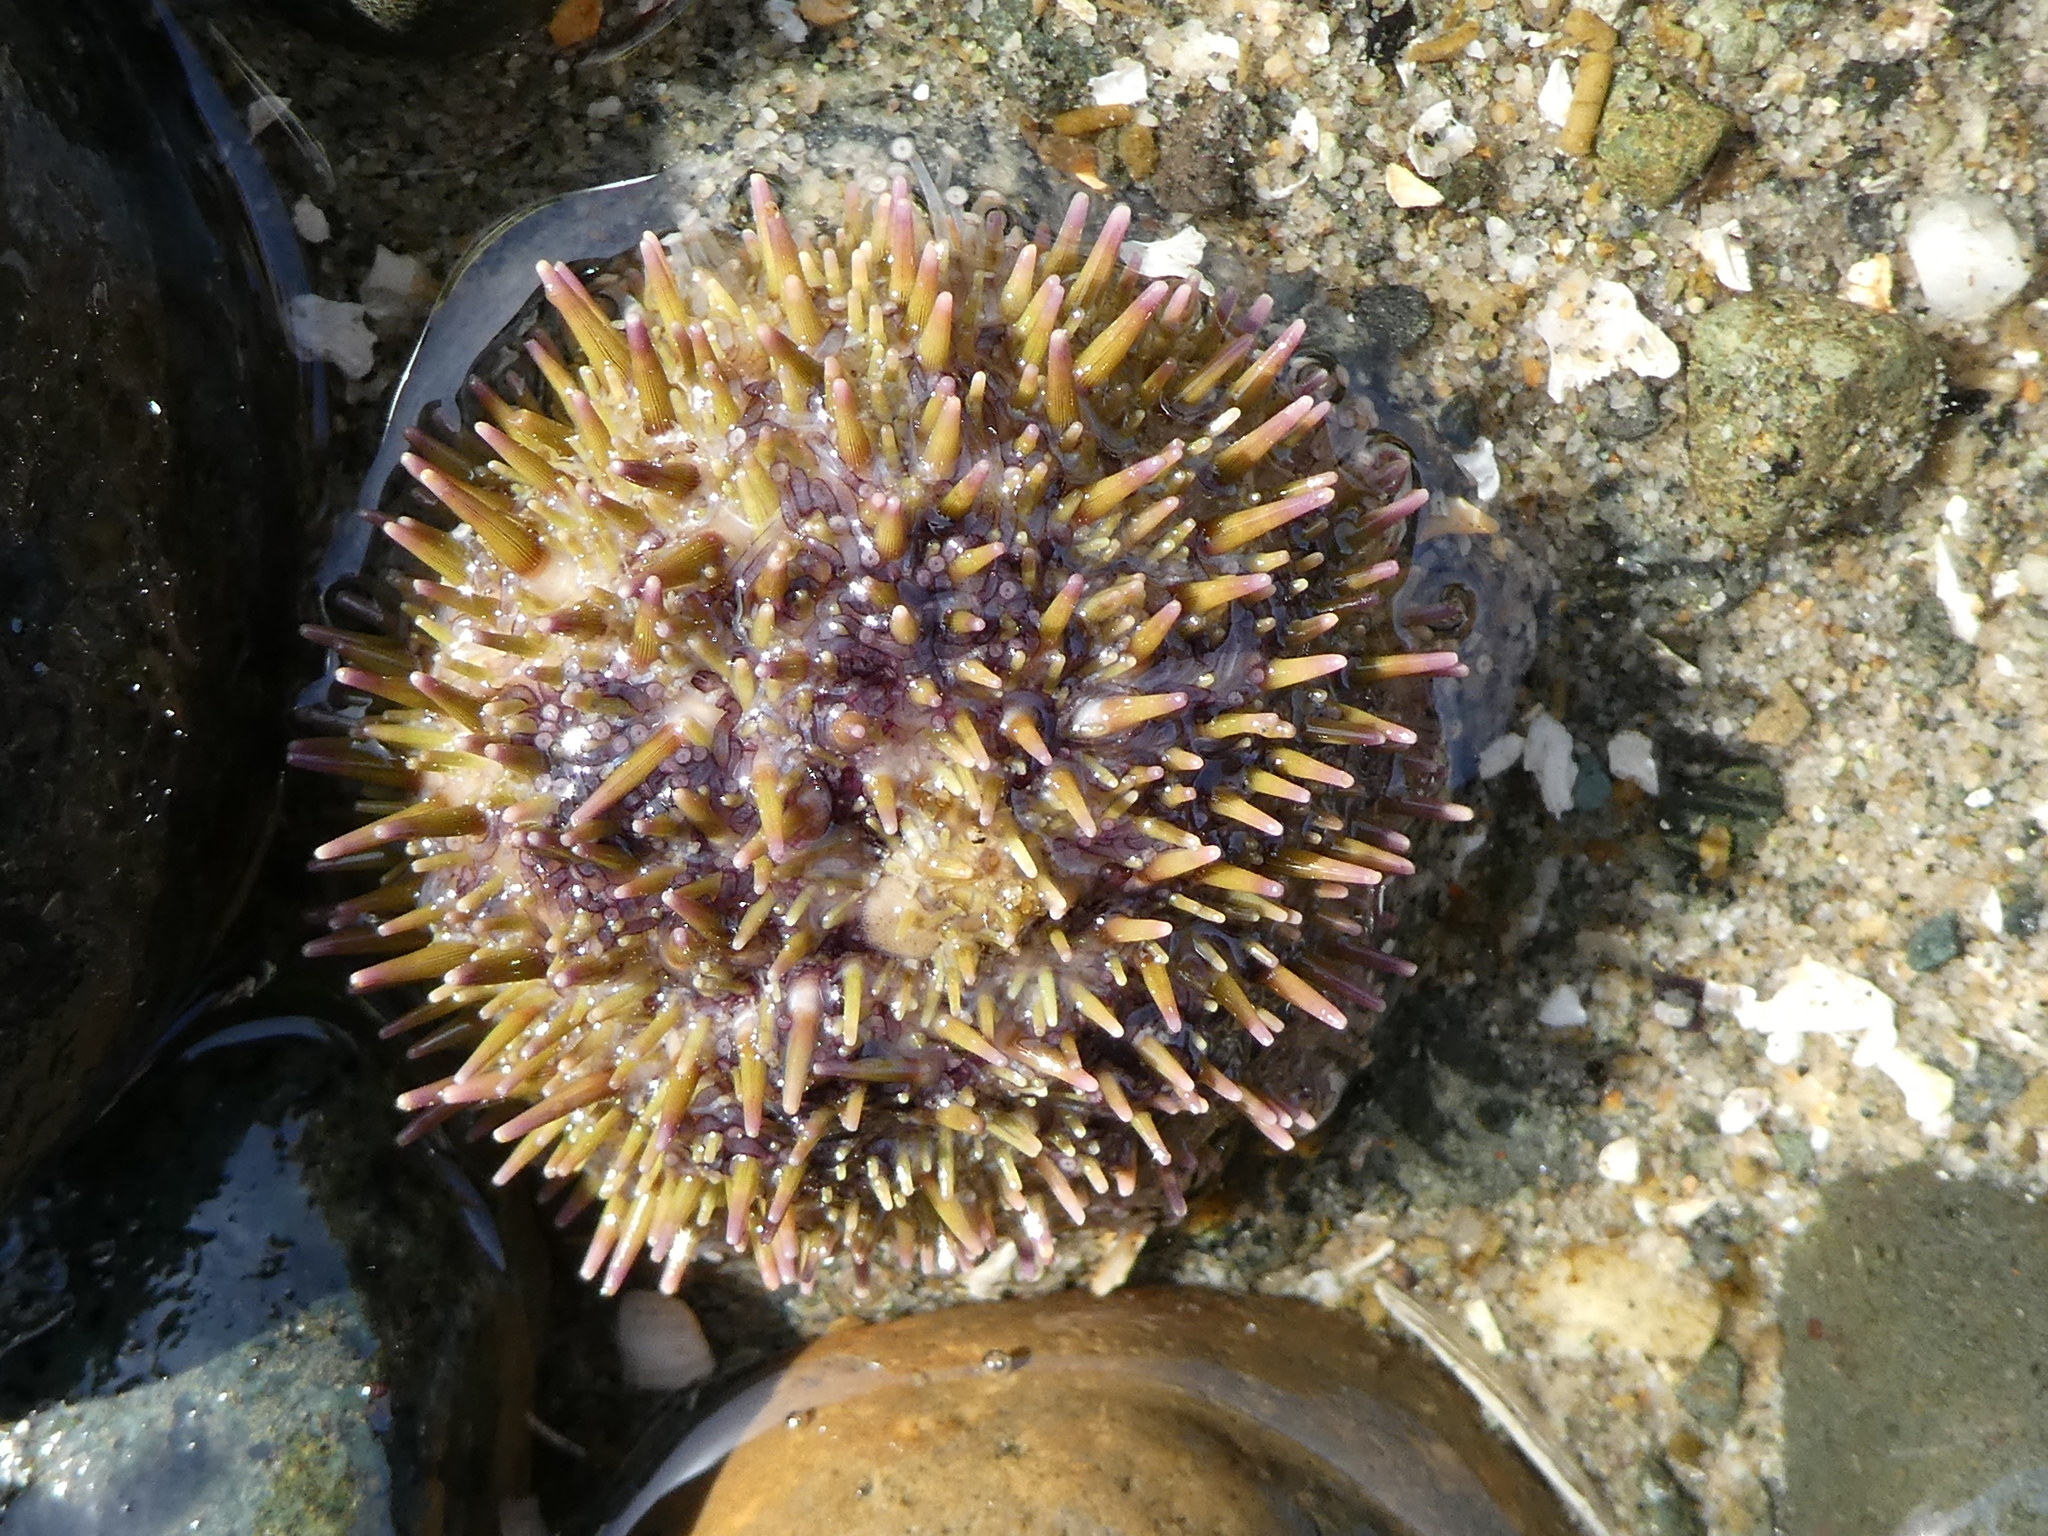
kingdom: Animalia
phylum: Echinodermata
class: Echinoidea
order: Camarodonta
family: Strongylocentrotidae
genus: Strongylocentrotus
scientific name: Strongylocentrotus droebachiensis
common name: Northern sea urchin
